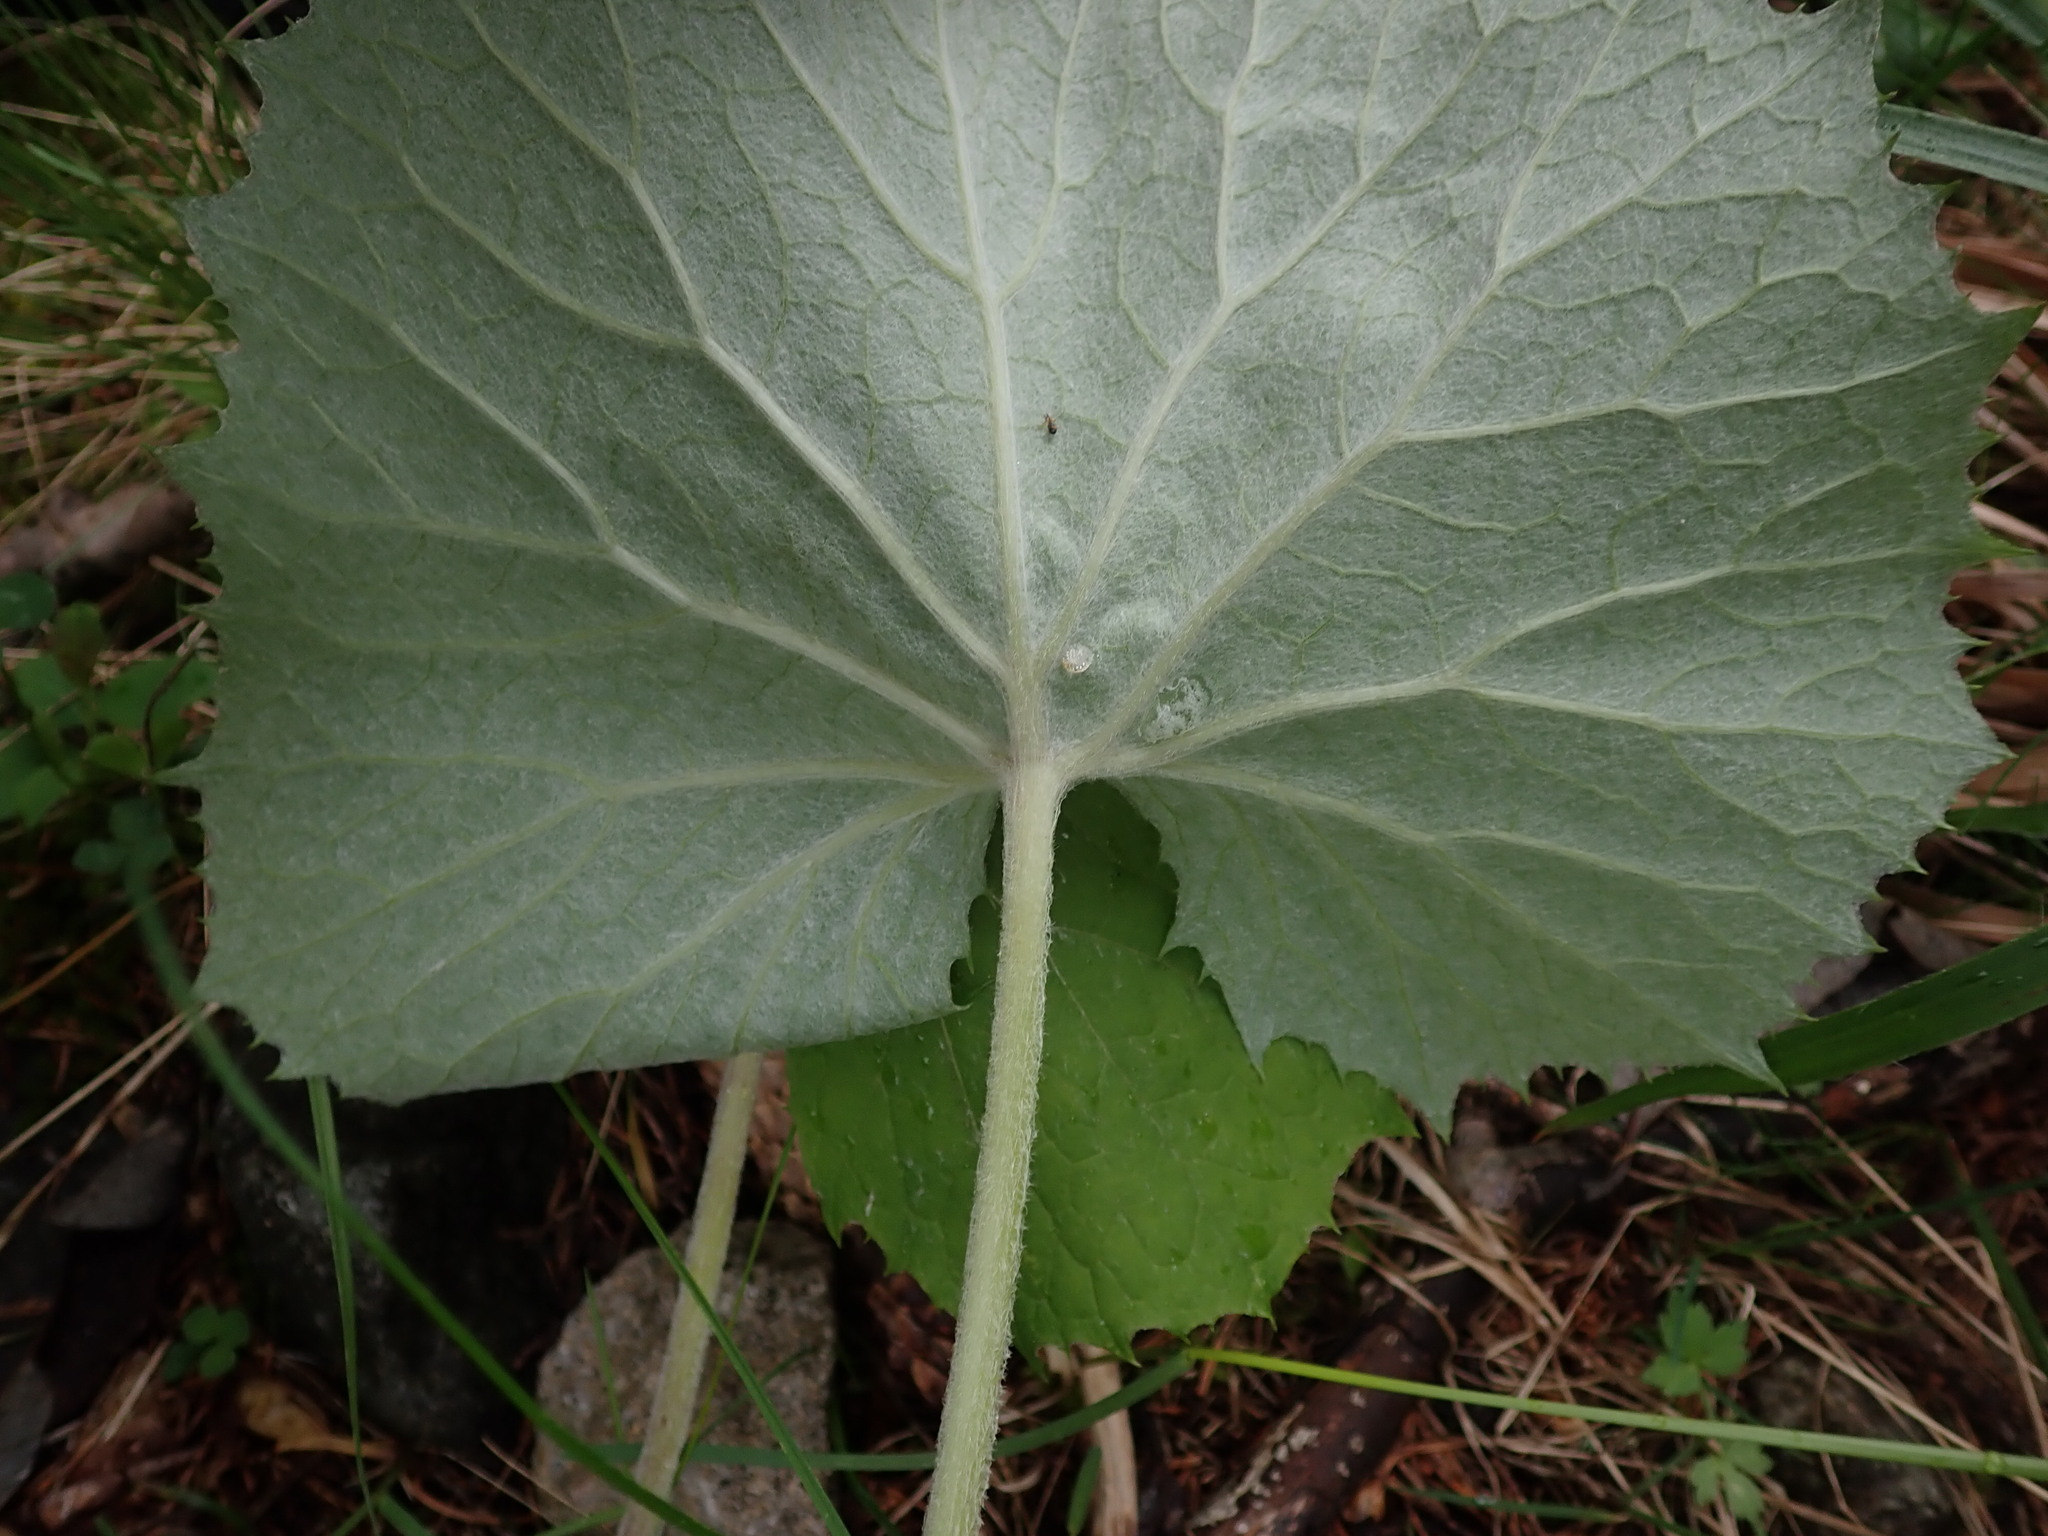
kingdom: Plantae
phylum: Tracheophyta
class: Magnoliopsida
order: Asterales
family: Asteraceae
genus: Petasites
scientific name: Petasites albus
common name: White butterbur
